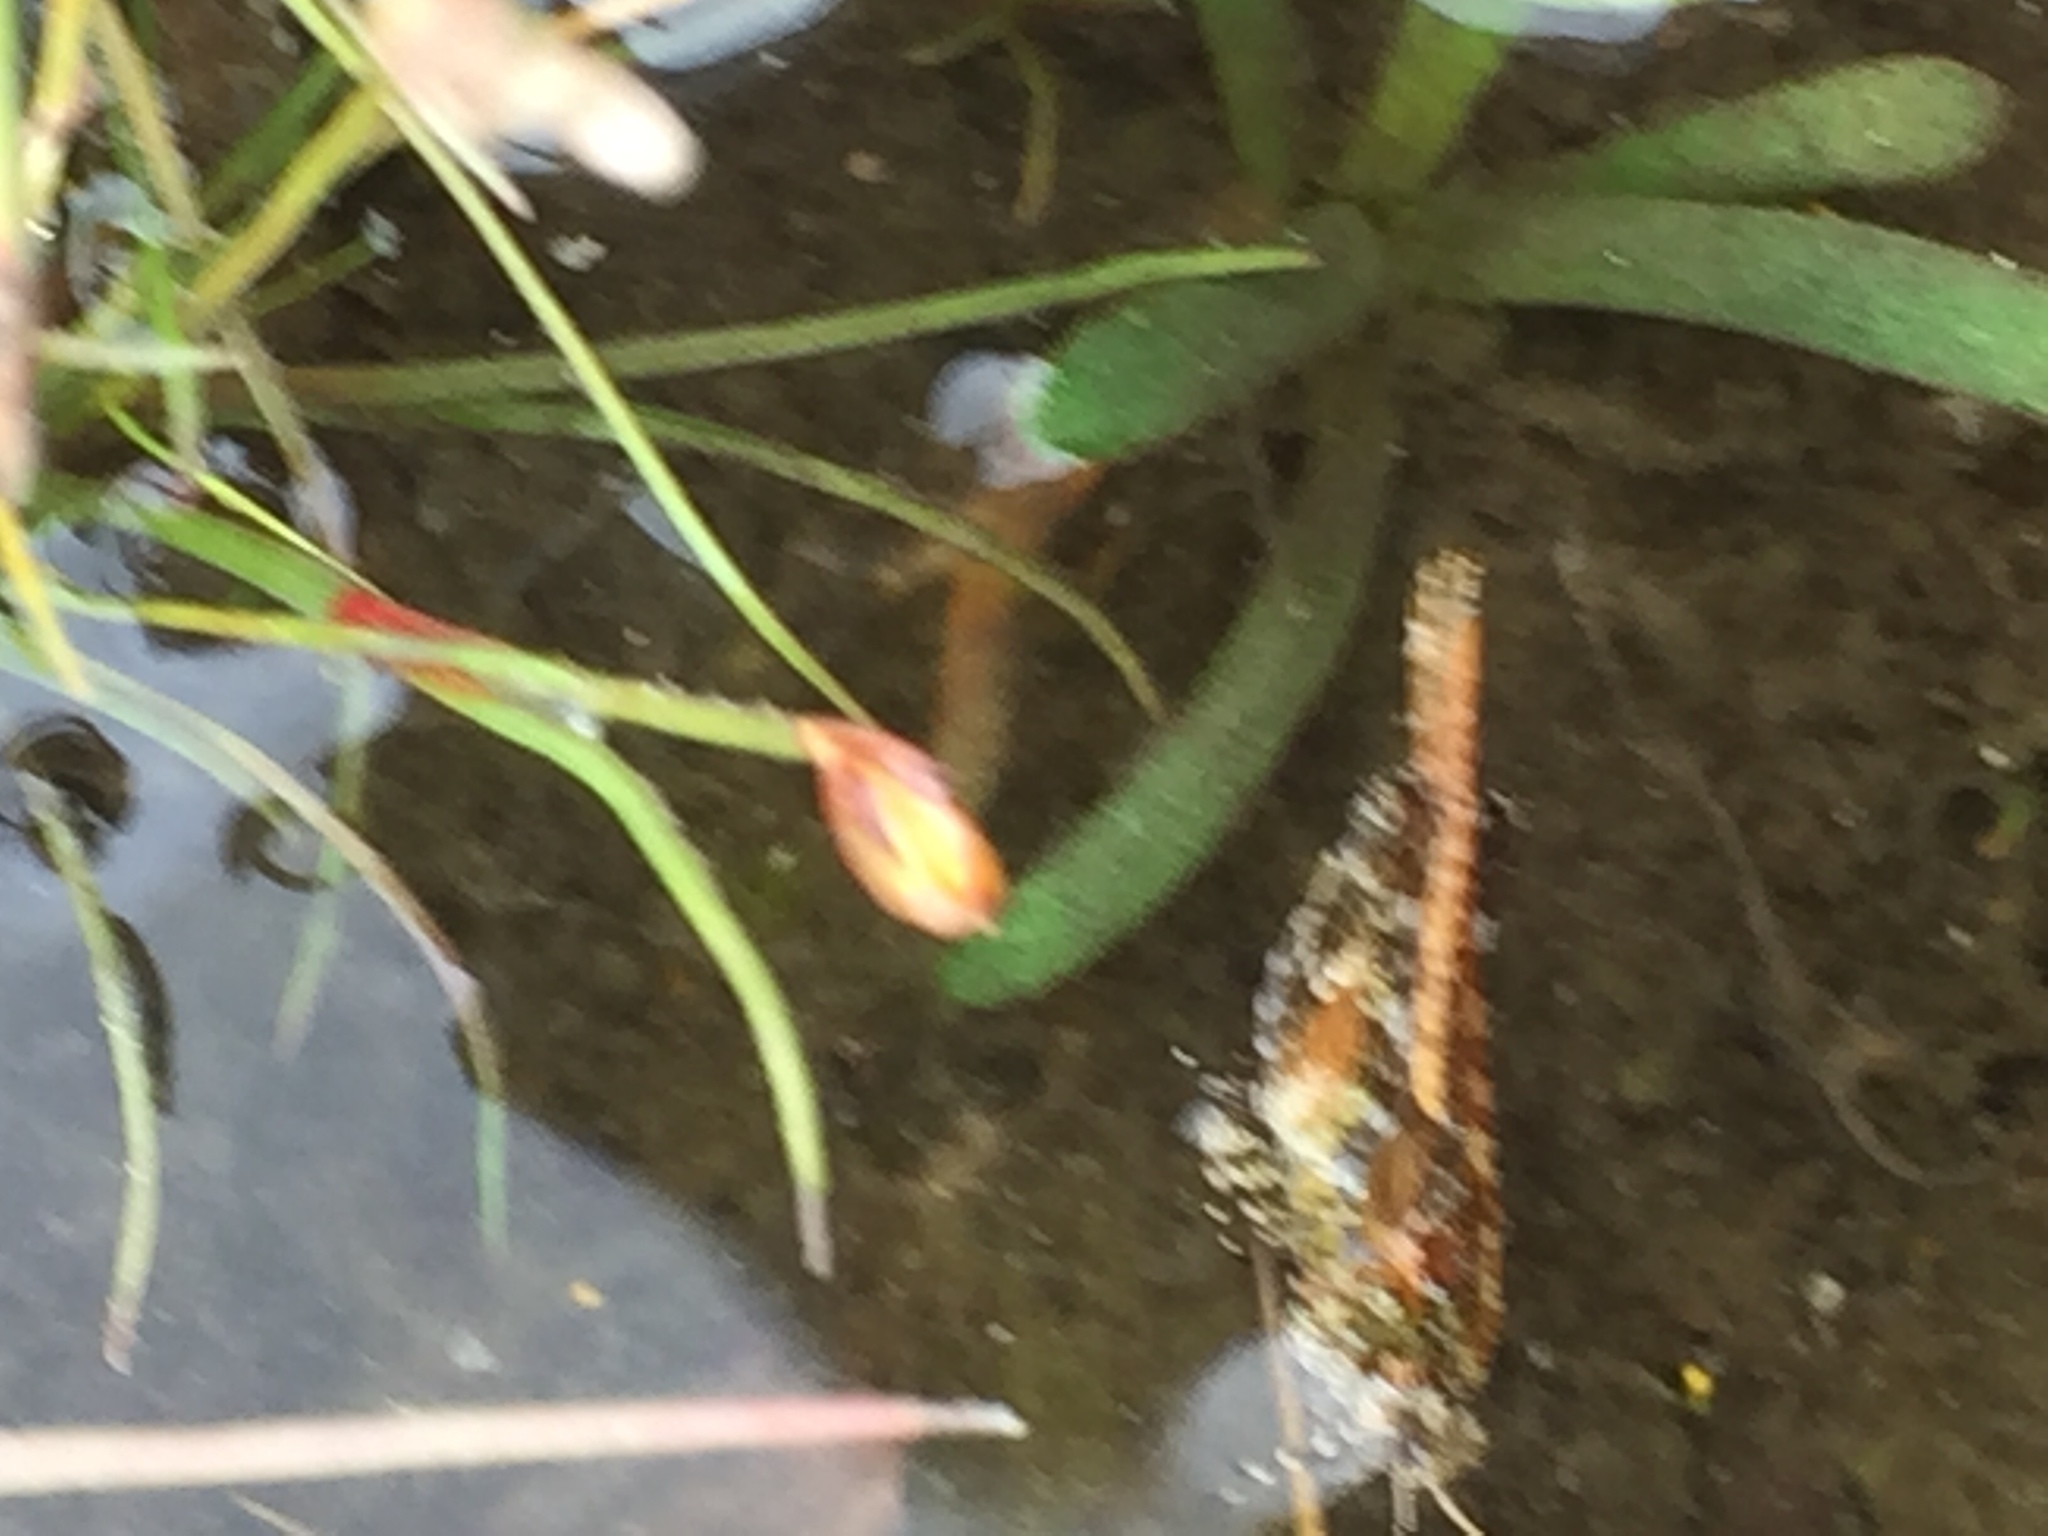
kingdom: Animalia
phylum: Arthropoda
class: Insecta
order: Orthoptera
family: Tetrigidae
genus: Tetrix
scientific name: Tetrix ceperoi
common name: Cepero's ground-hopper
